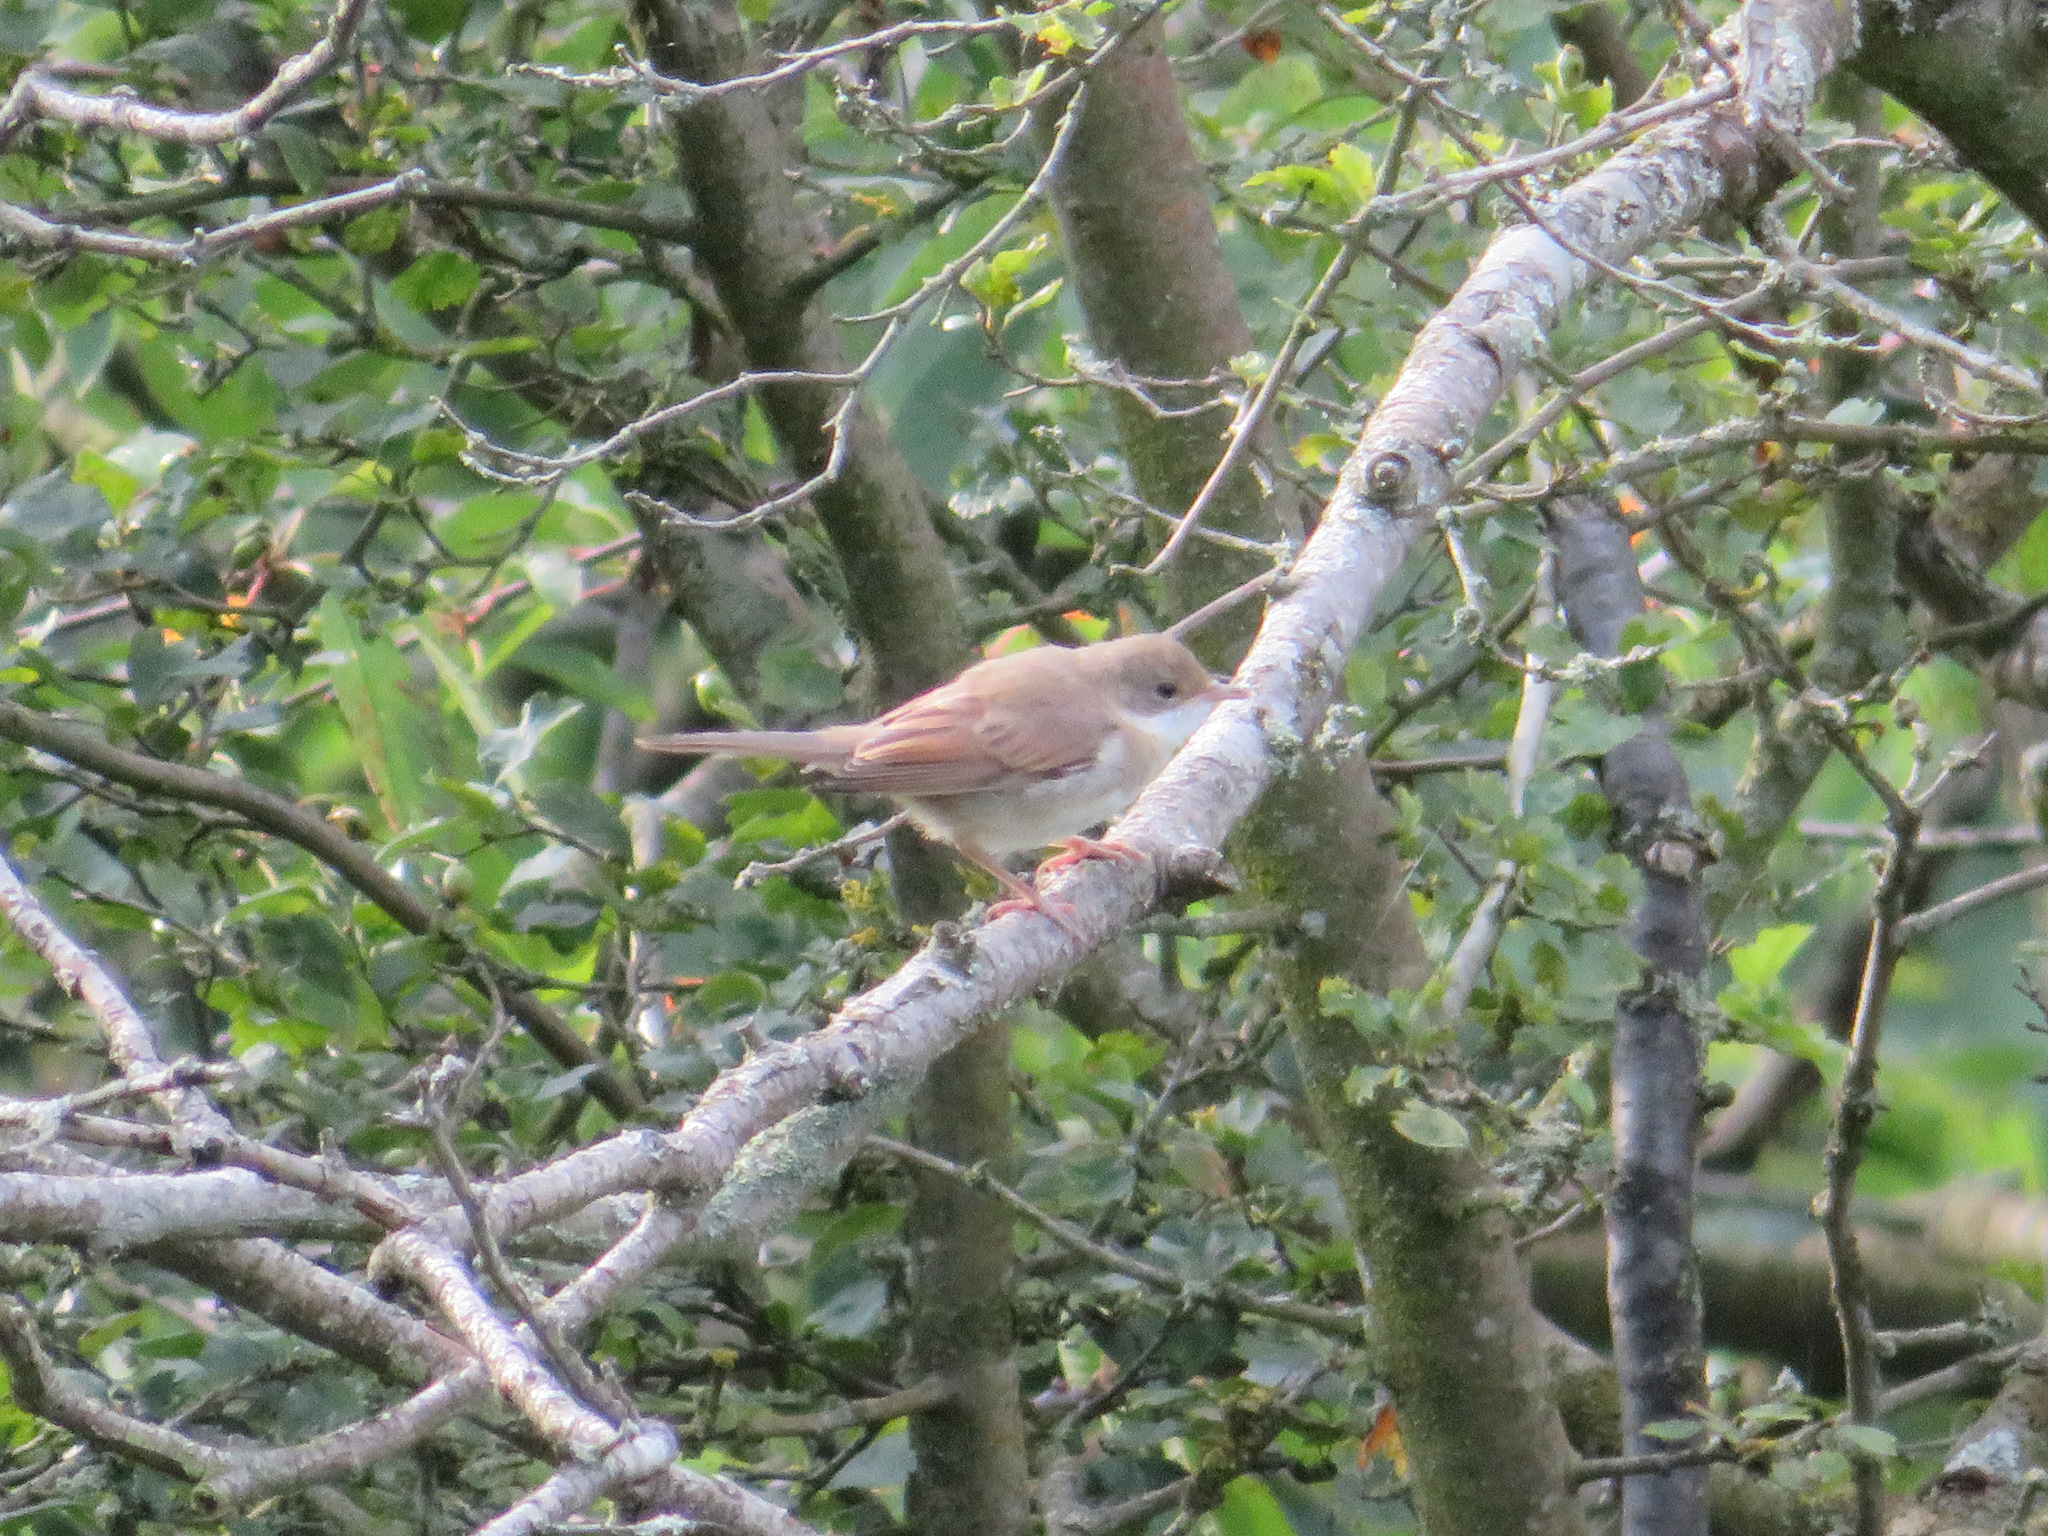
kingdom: Animalia
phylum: Chordata
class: Aves
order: Passeriformes
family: Sylviidae
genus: Sylvia
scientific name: Sylvia communis
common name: Common whitethroat
